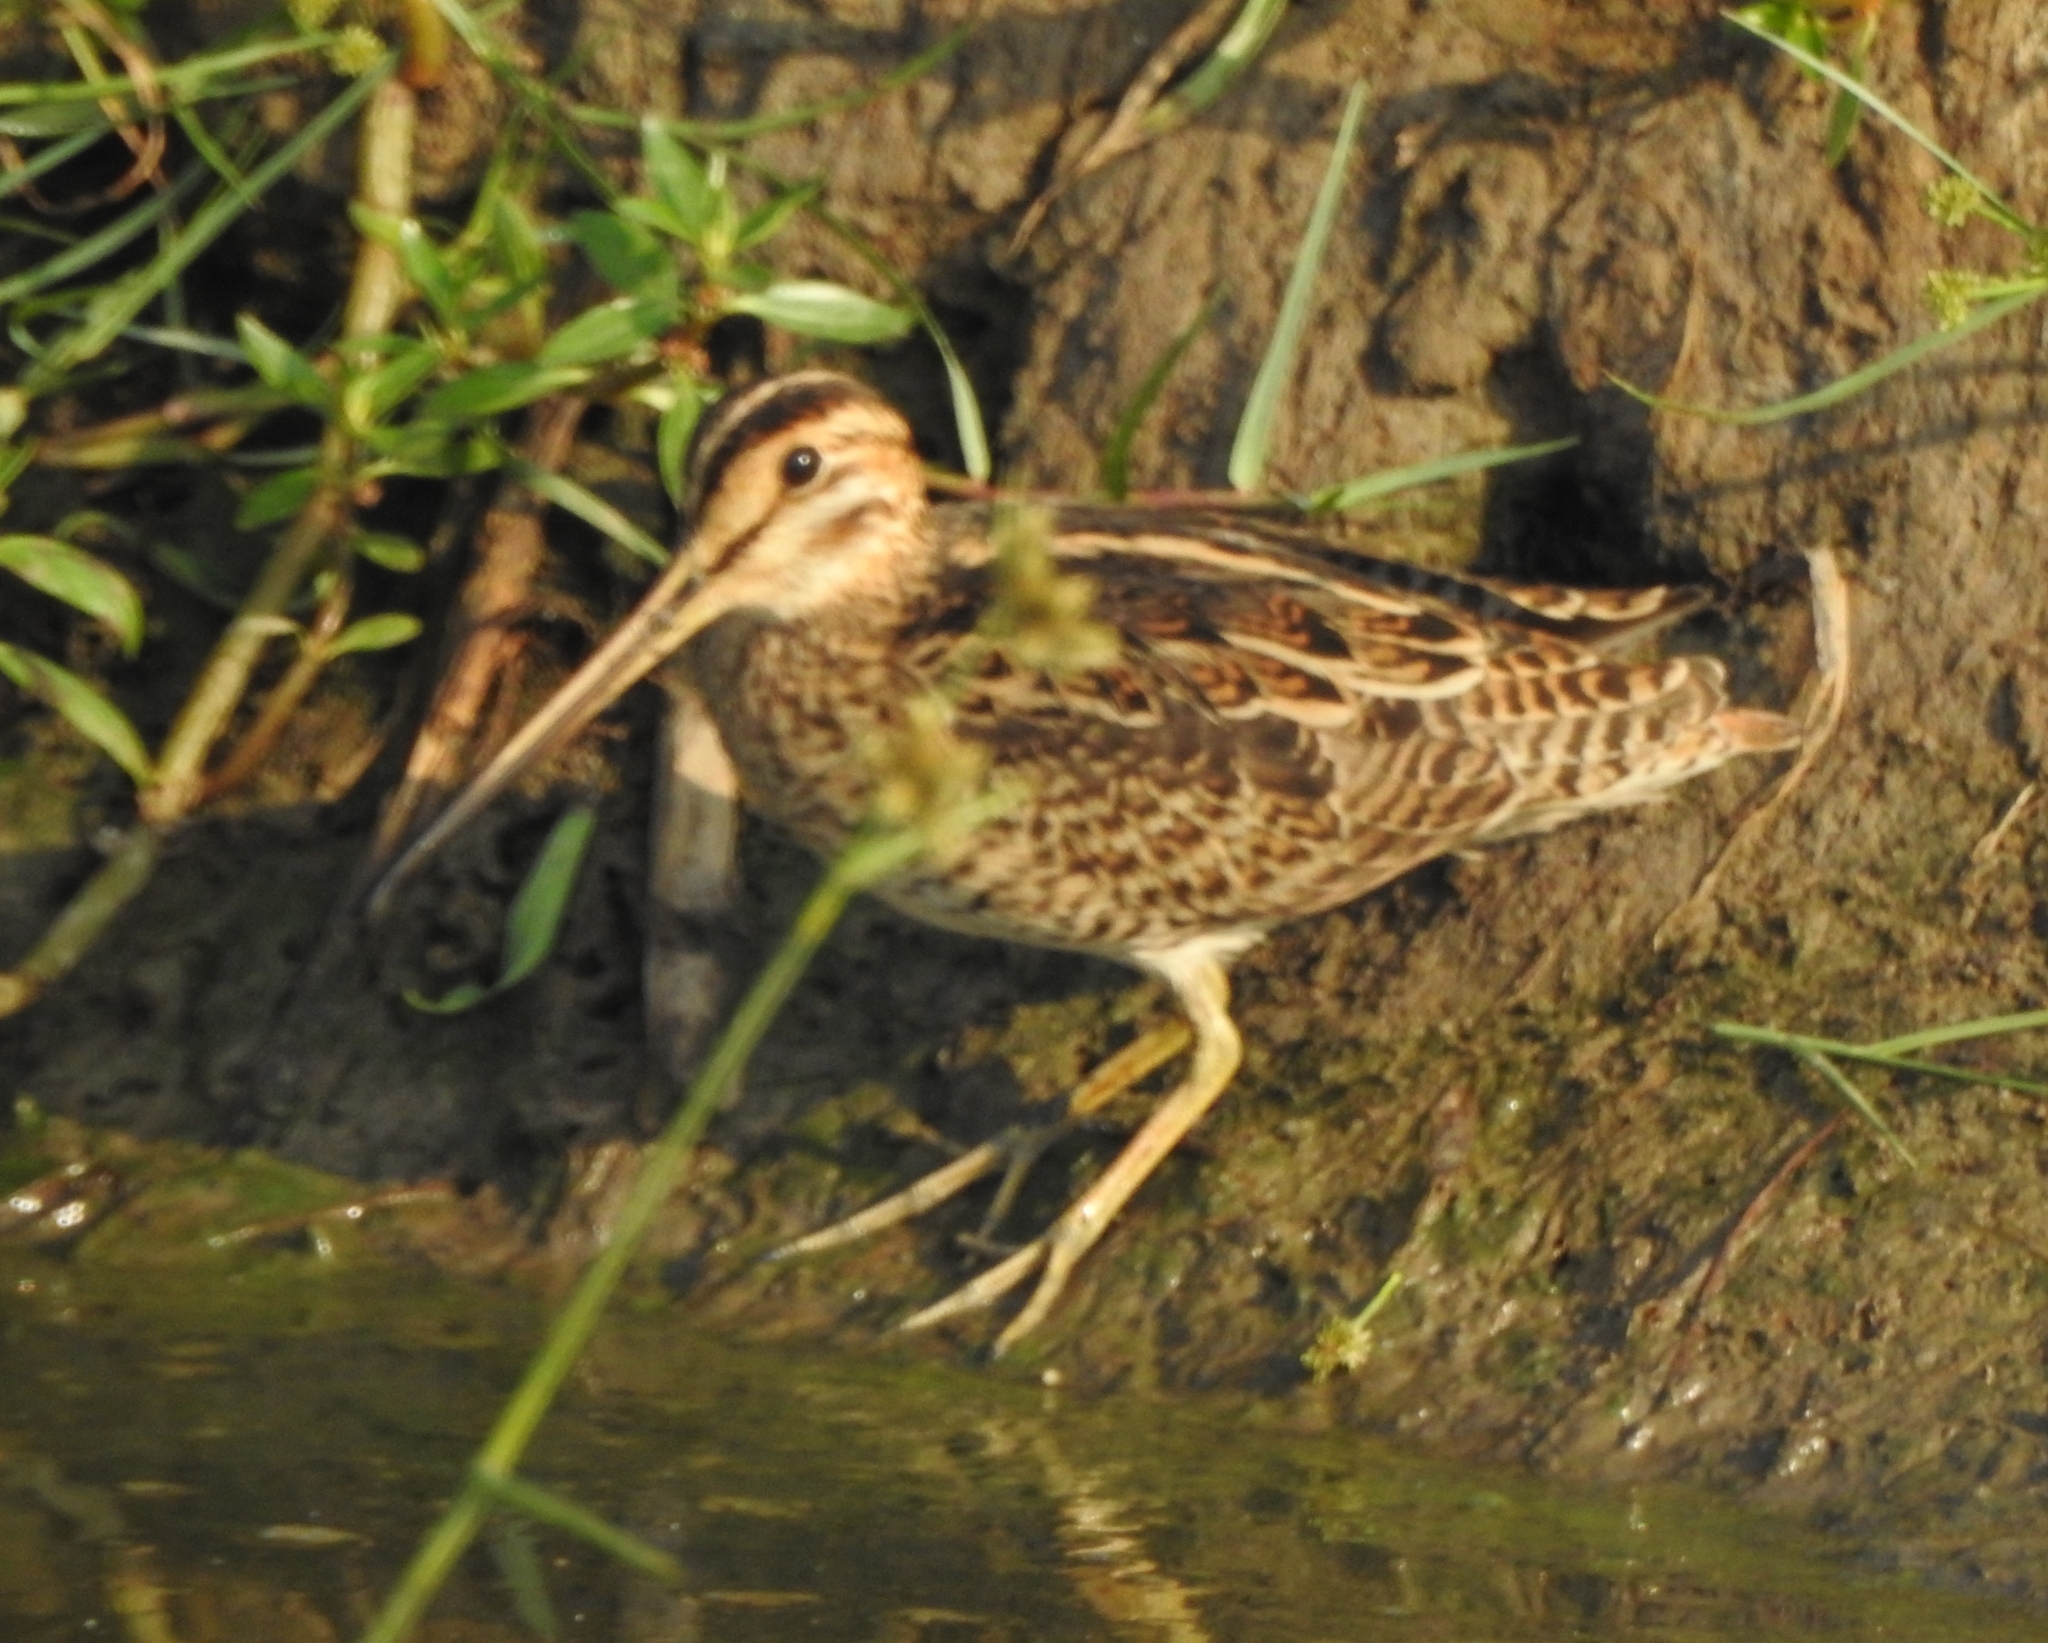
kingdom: Animalia
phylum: Chordata
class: Aves
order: Charadriiformes
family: Scolopacidae
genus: Gallinago
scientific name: Gallinago gallinago
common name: Common snipe
